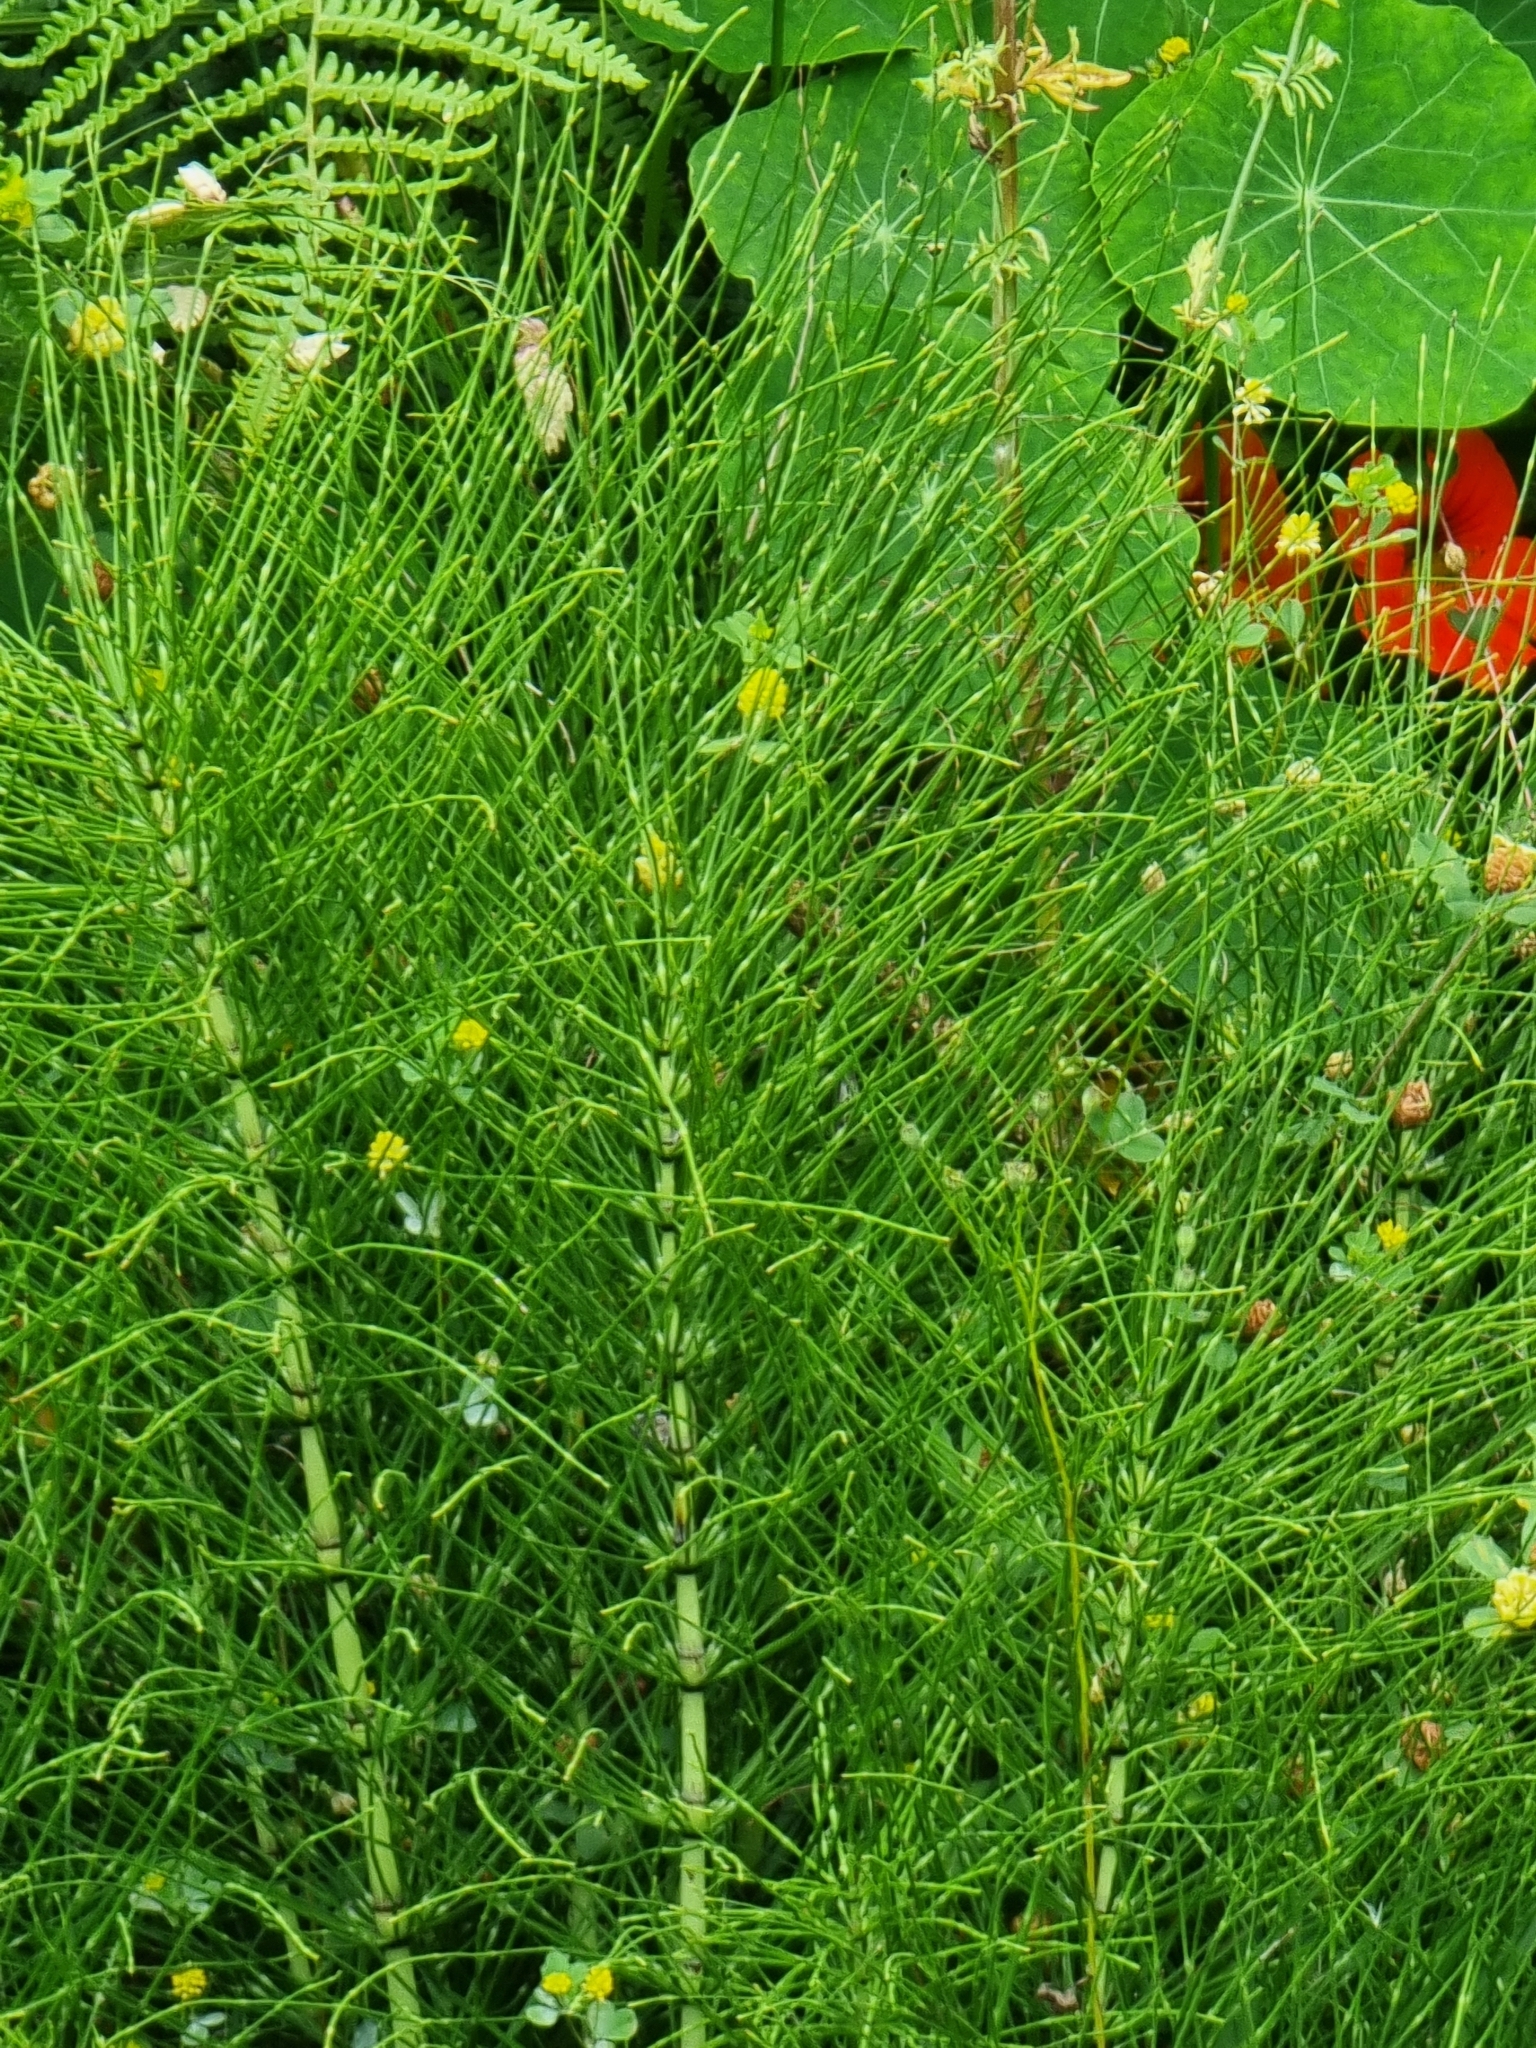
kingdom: Plantae
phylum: Tracheophyta
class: Polypodiopsida
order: Equisetales
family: Equisetaceae
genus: Equisetum
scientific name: Equisetum telmateia
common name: Great horsetail
